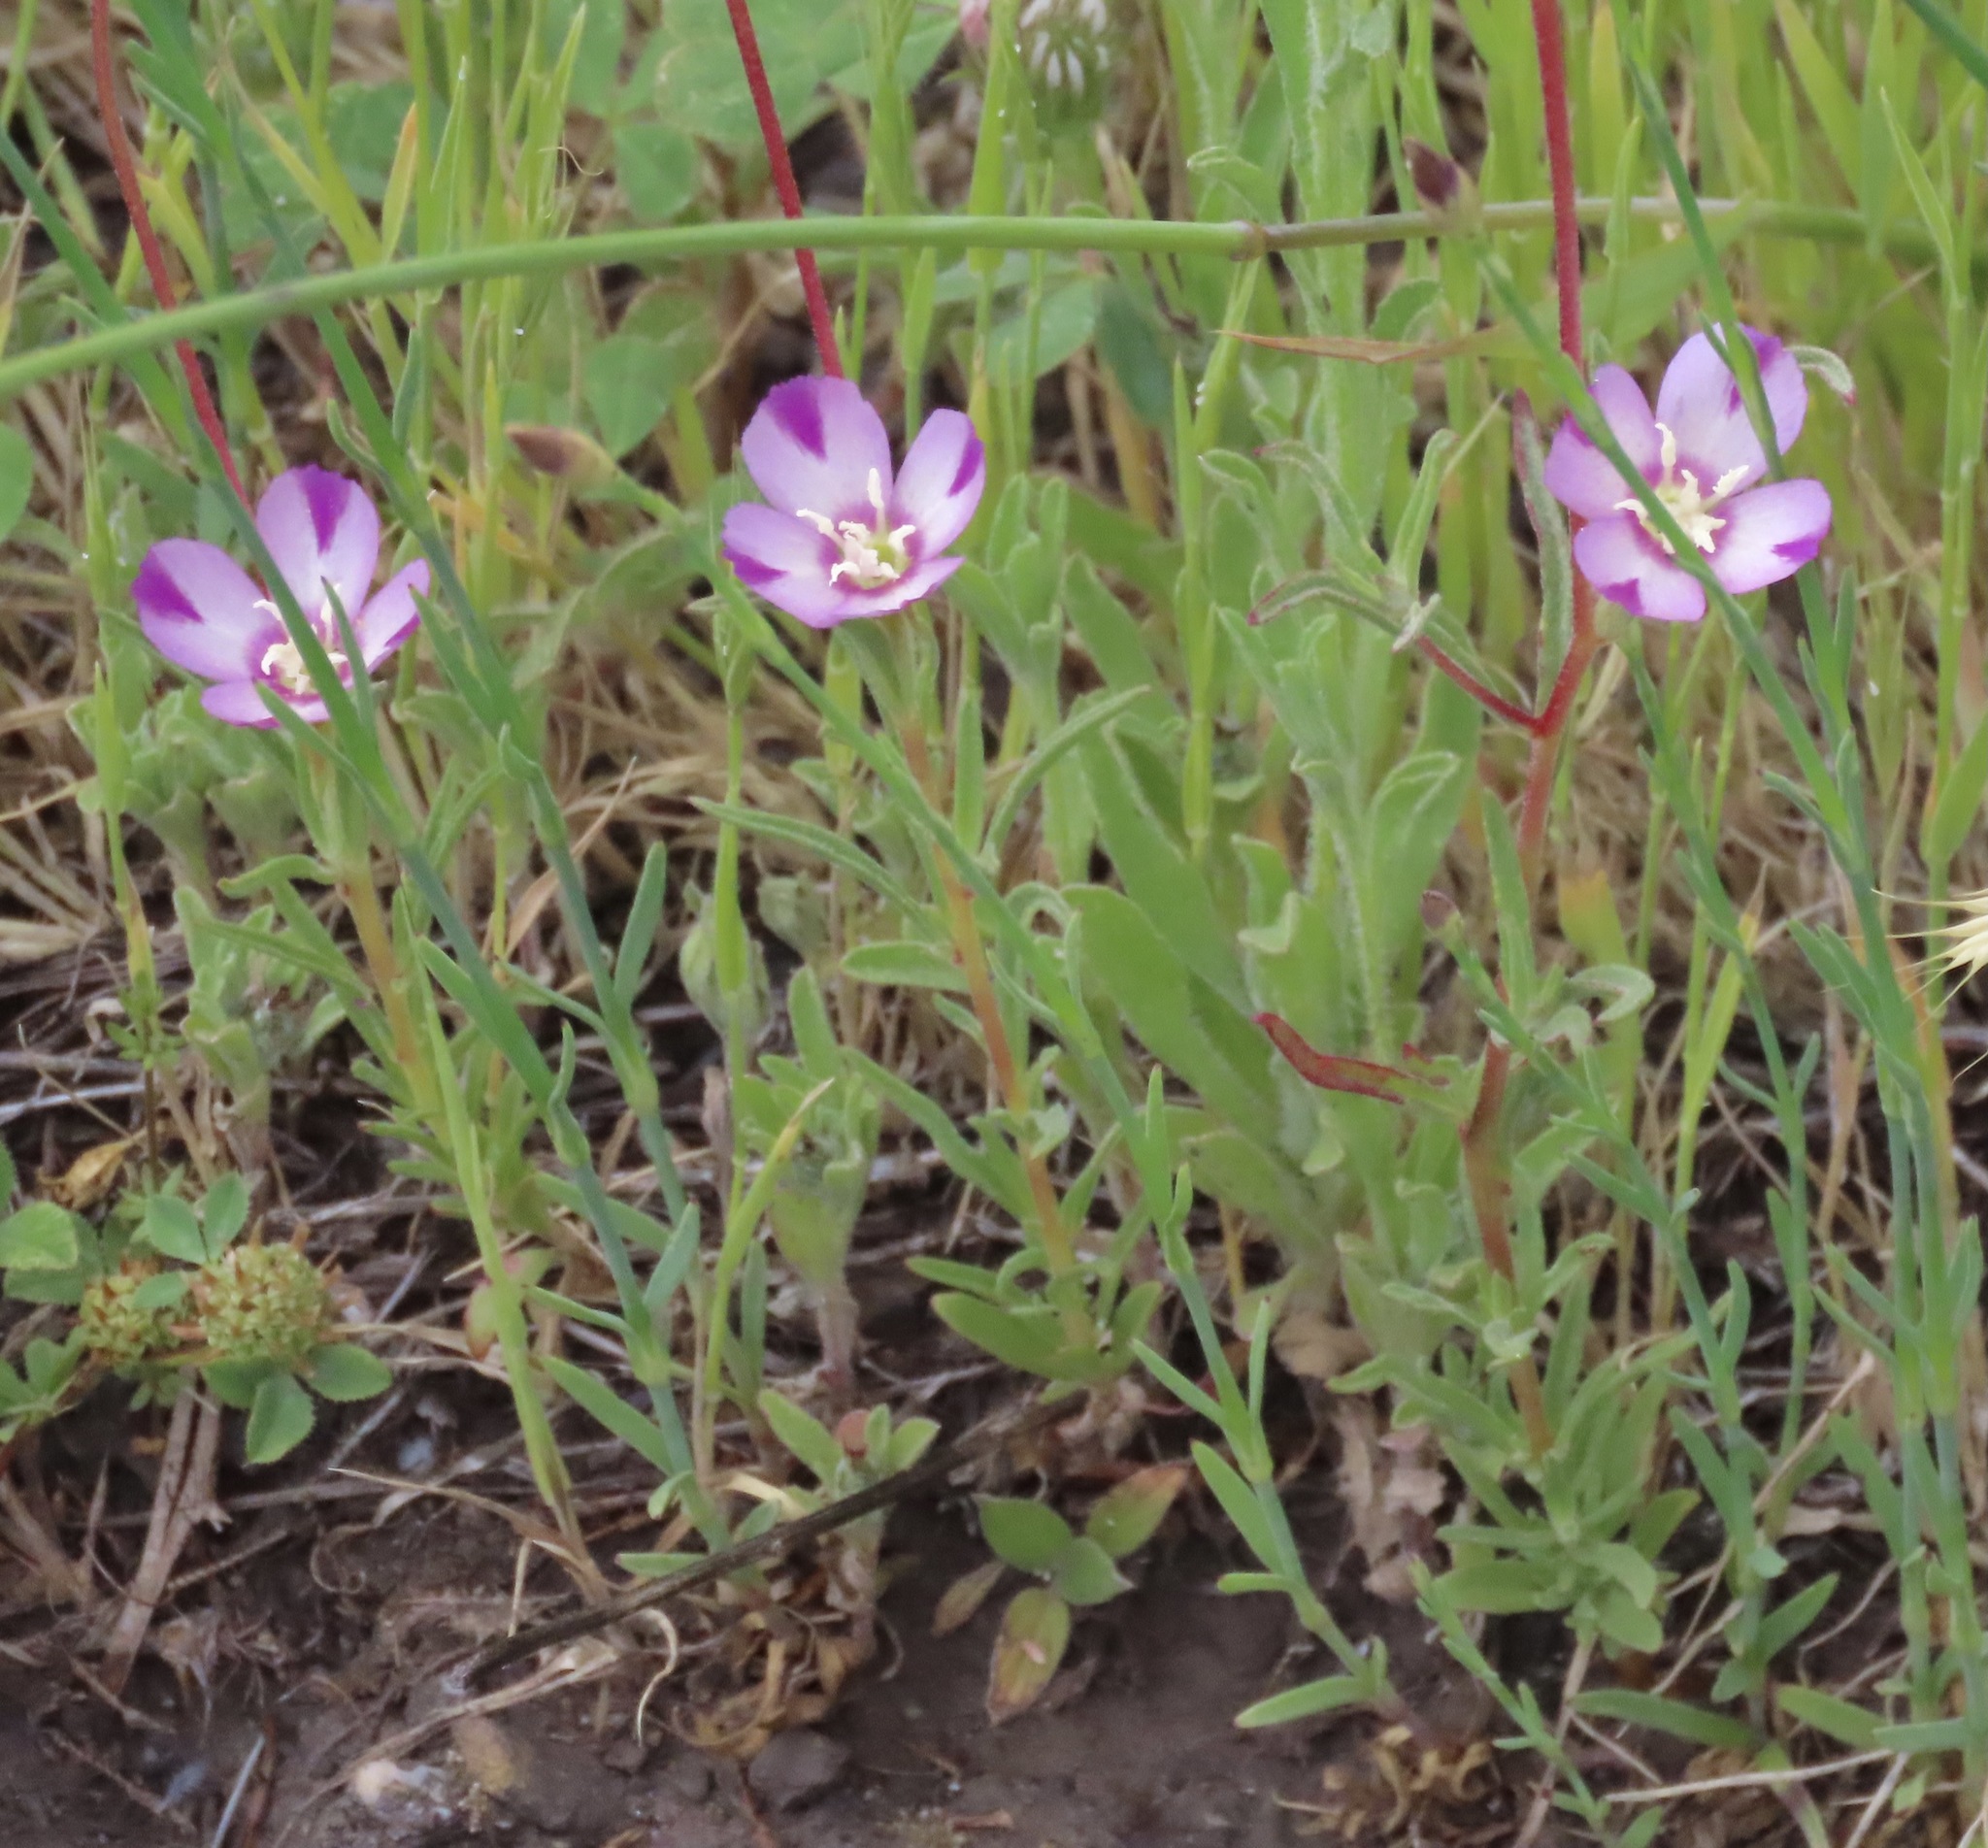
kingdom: Plantae
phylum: Tracheophyta
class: Magnoliopsida
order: Myrtales
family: Onagraceae
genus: Clarkia
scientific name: Clarkia purpurea
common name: Purple clarkia
